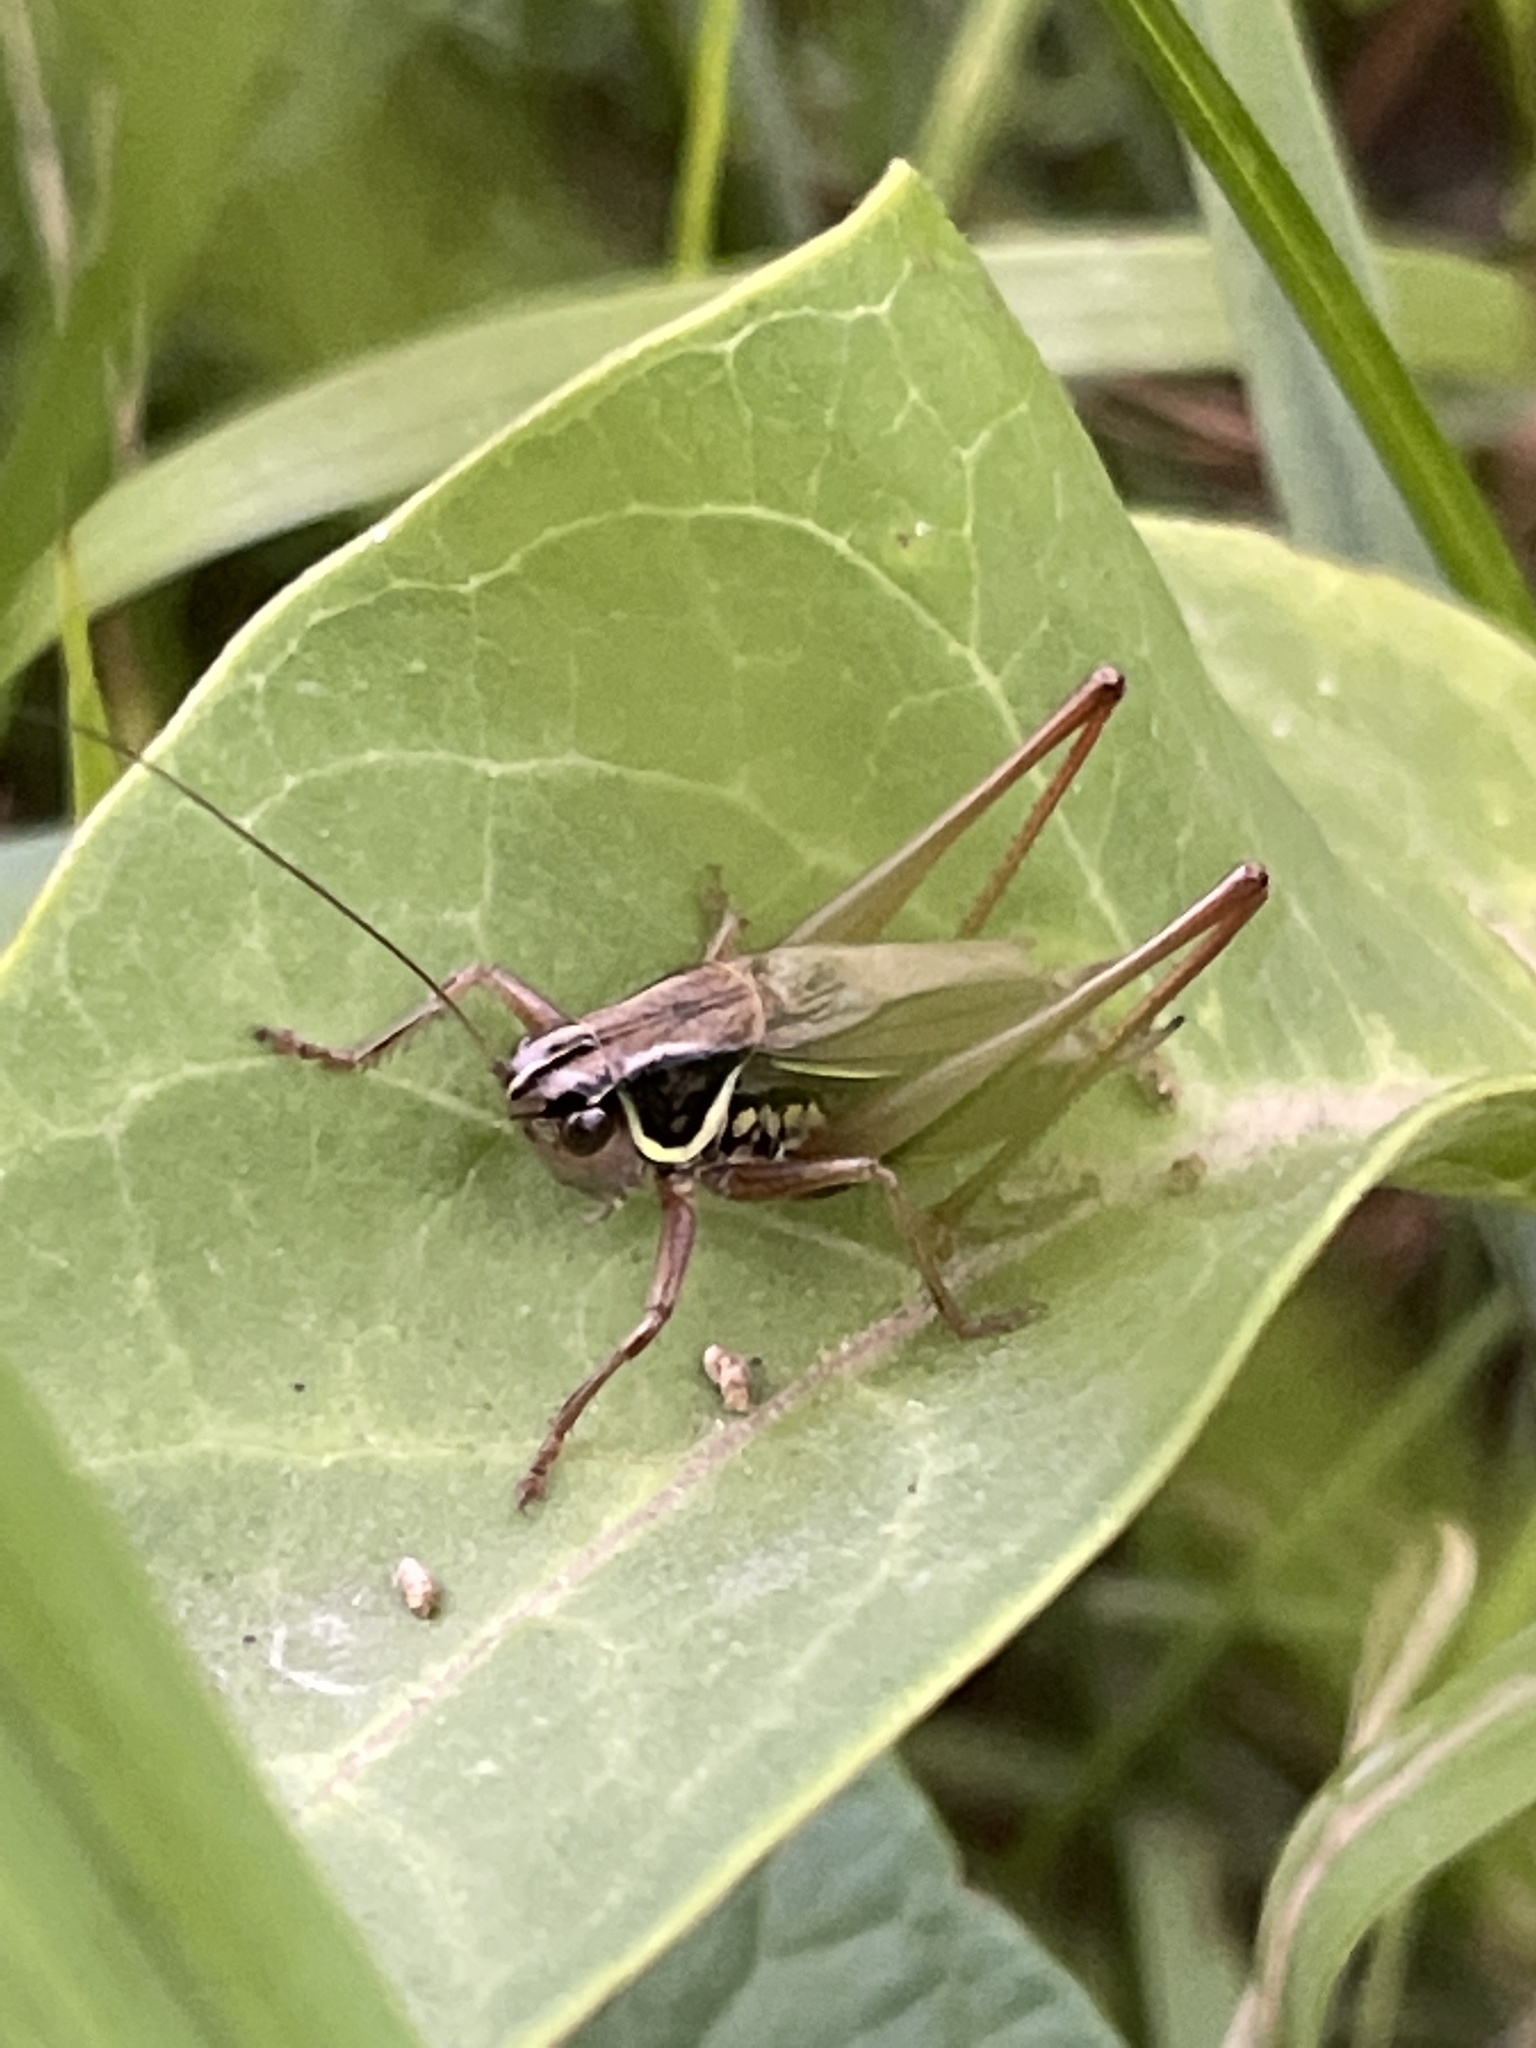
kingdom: Animalia
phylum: Arthropoda
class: Insecta
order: Orthoptera
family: Tettigoniidae
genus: Roeseliana
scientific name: Roeseliana roeselii
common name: Roesel's bush cricket
